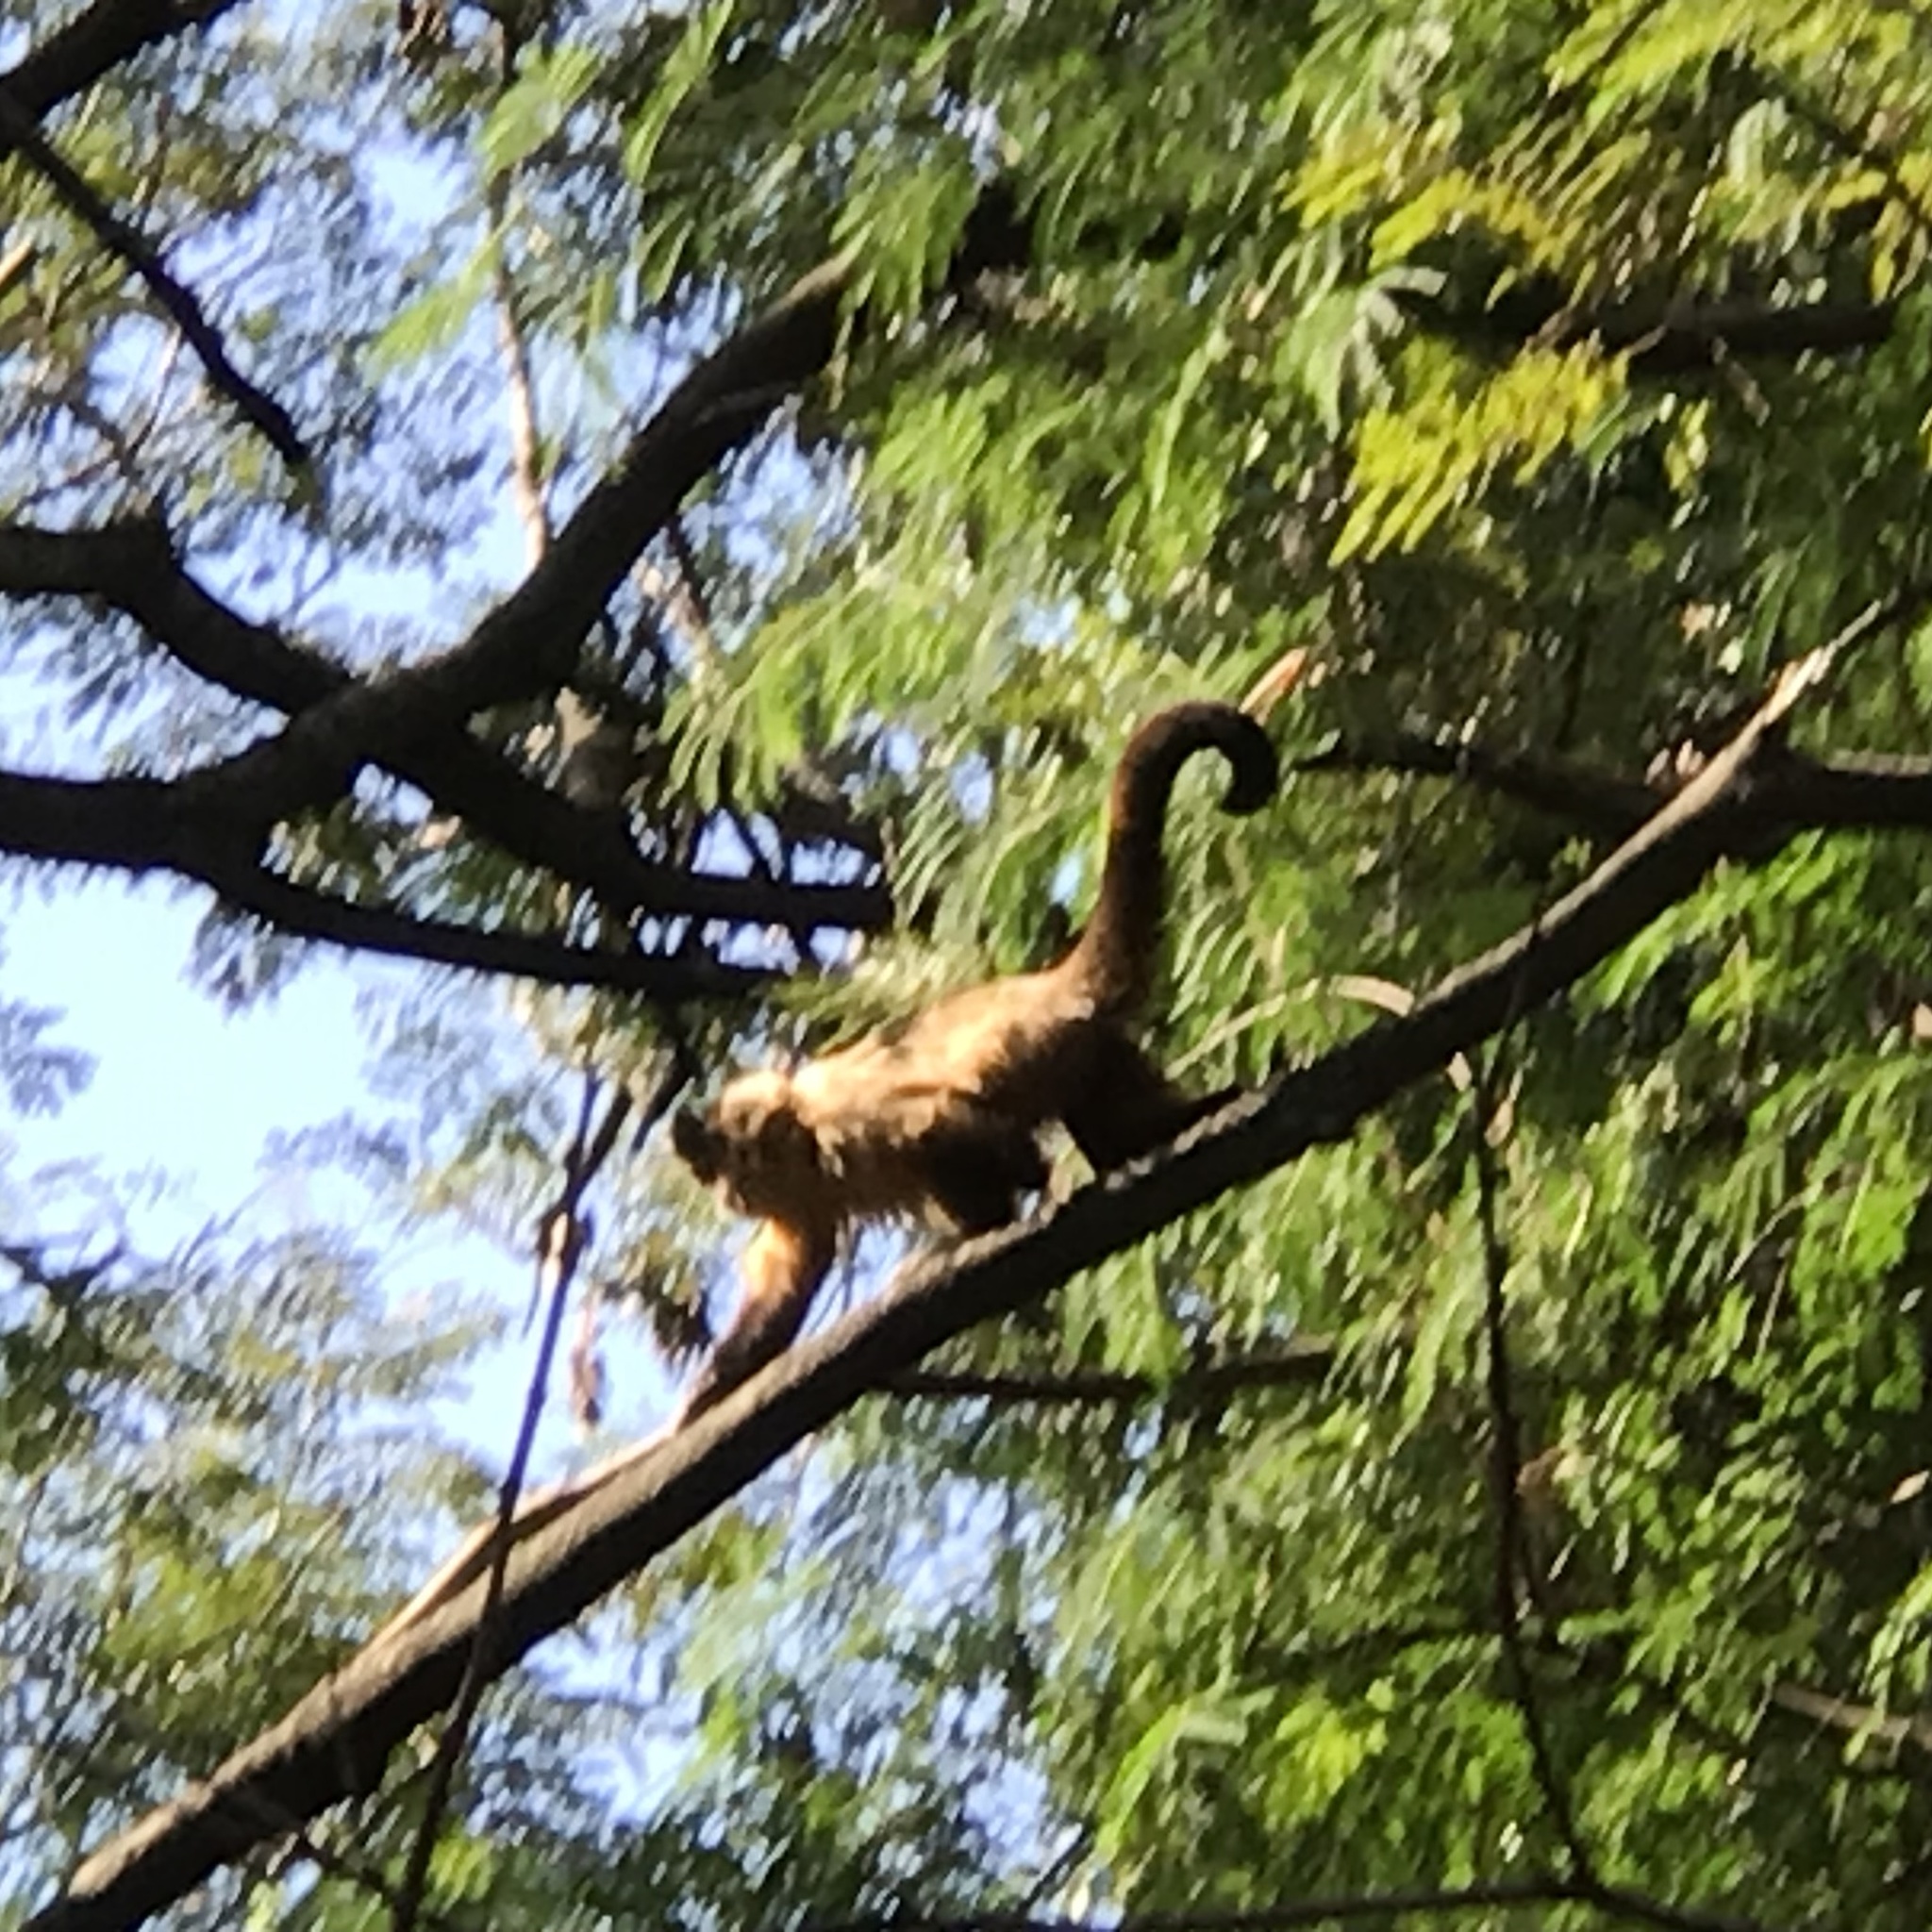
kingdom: Animalia
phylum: Chordata
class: Mammalia
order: Primates
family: Cebidae
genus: Sapajus
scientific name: Sapajus cay
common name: Hooded capuchin
